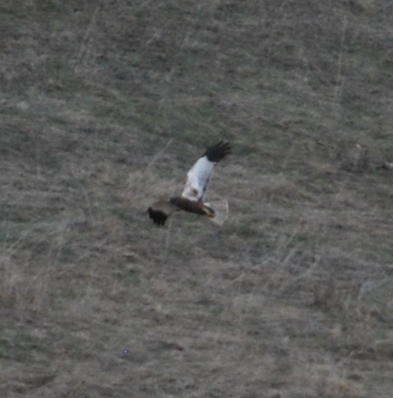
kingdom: Animalia
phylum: Chordata
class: Aves
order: Accipitriformes
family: Accipitridae
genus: Circus
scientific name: Circus aeruginosus
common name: Western marsh harrier
